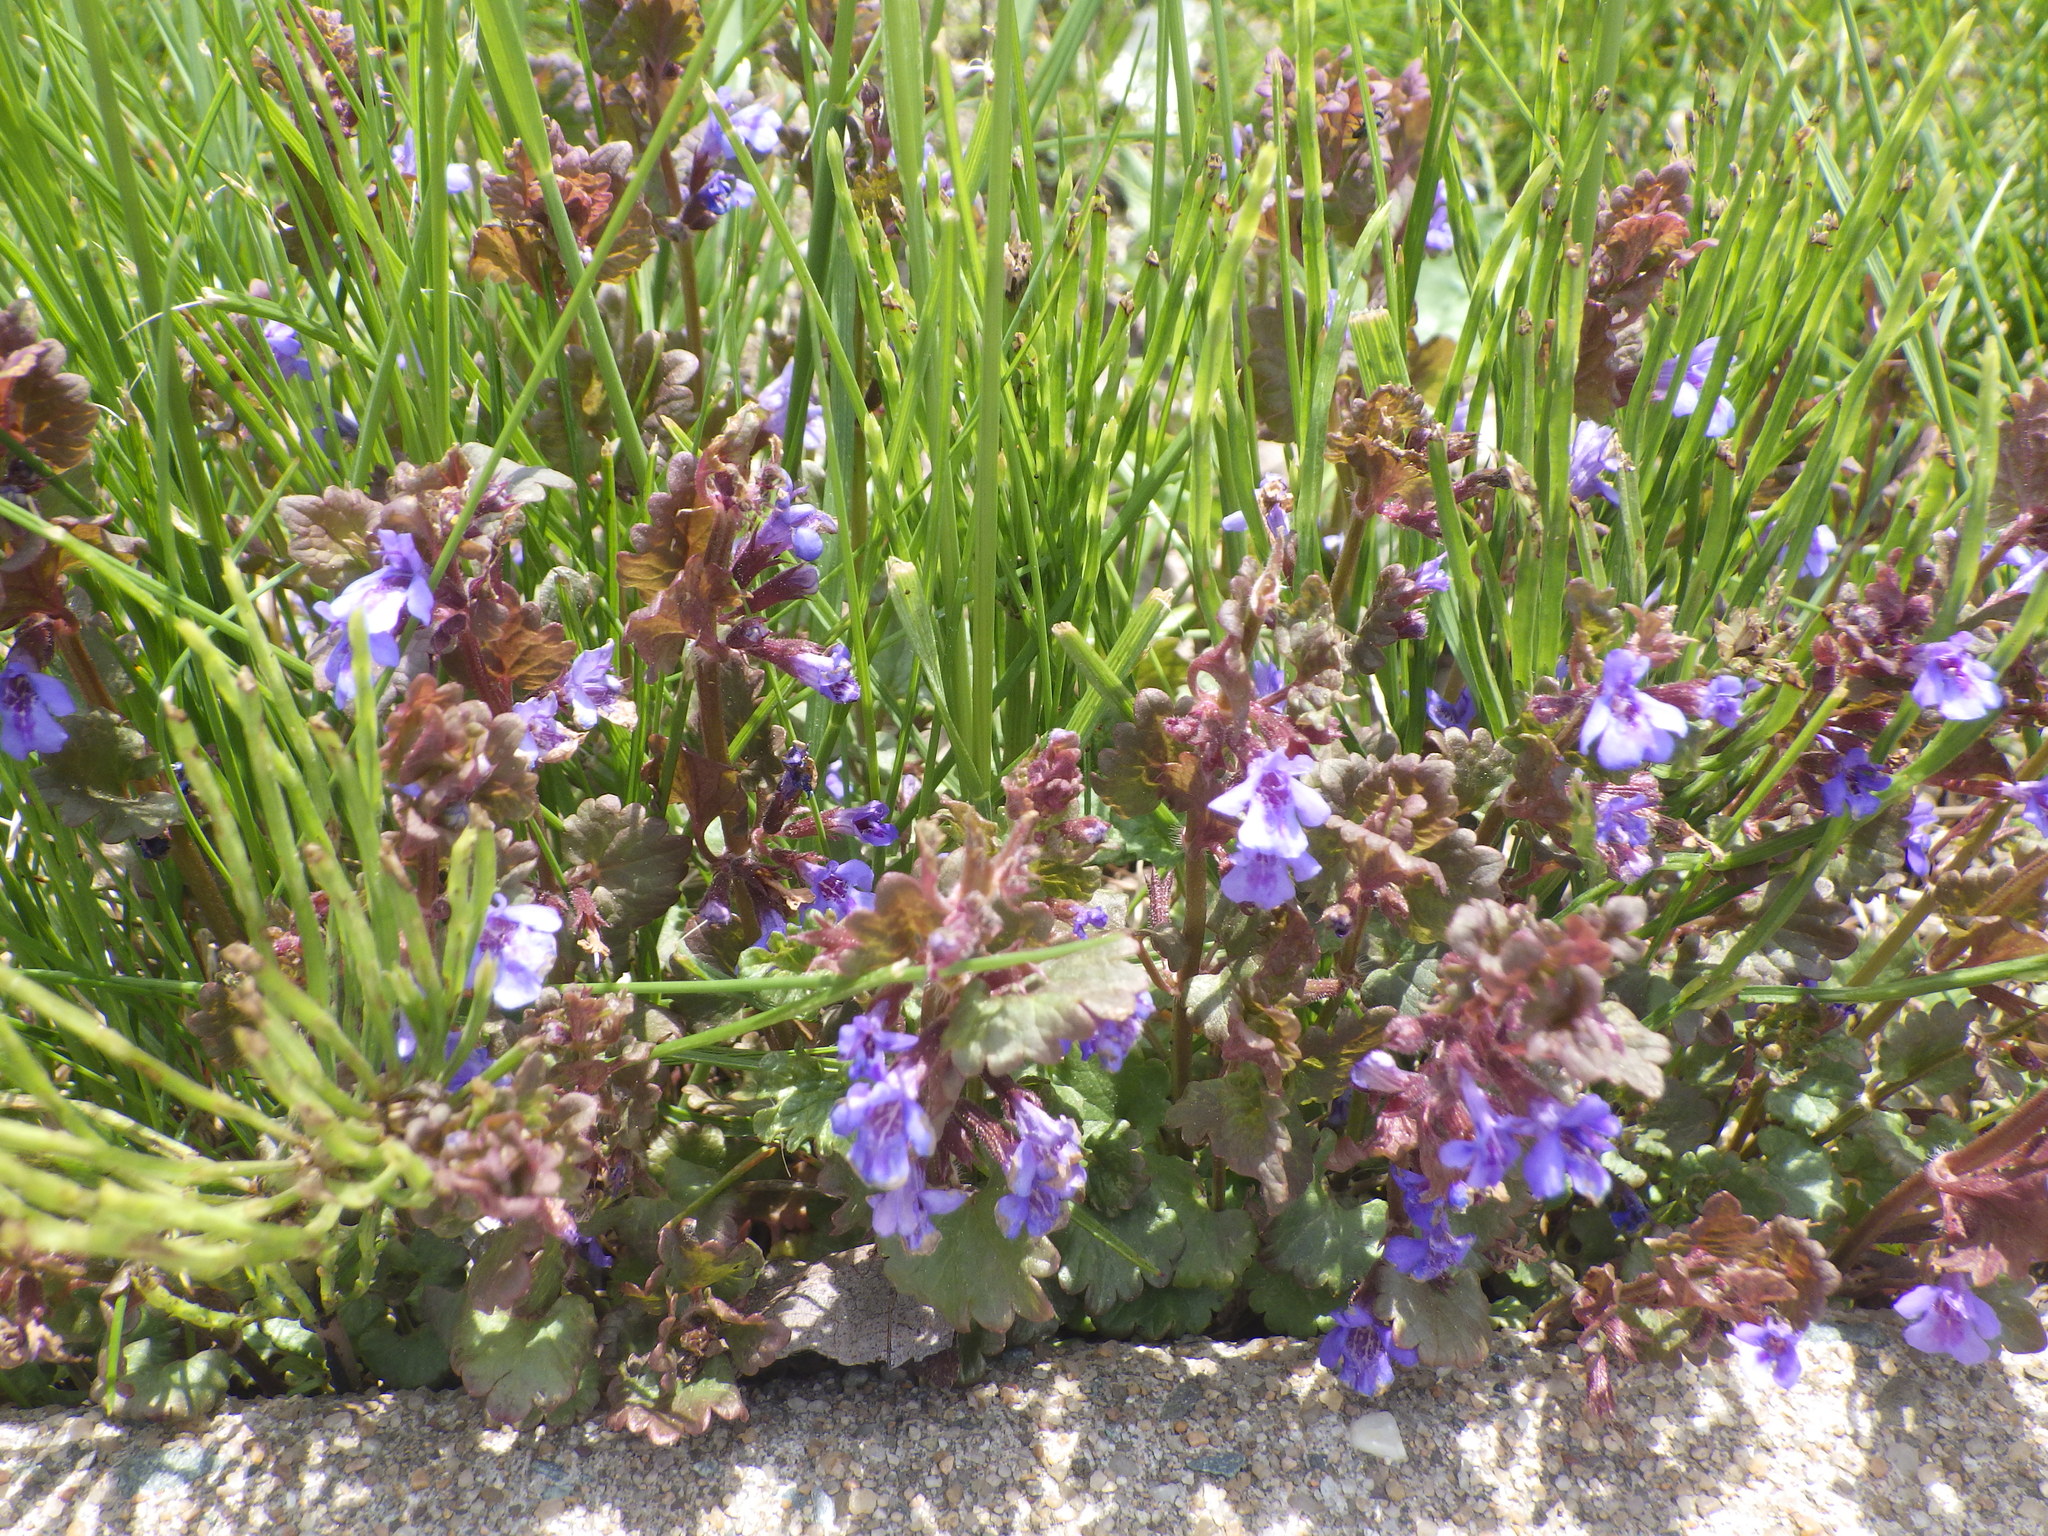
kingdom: Plantae
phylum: Tracheophyta
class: Magnoliopsida
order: Lamiales
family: Lamiaceae
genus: Glechoma
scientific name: Glechoma hederacea
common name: Ground ivy
